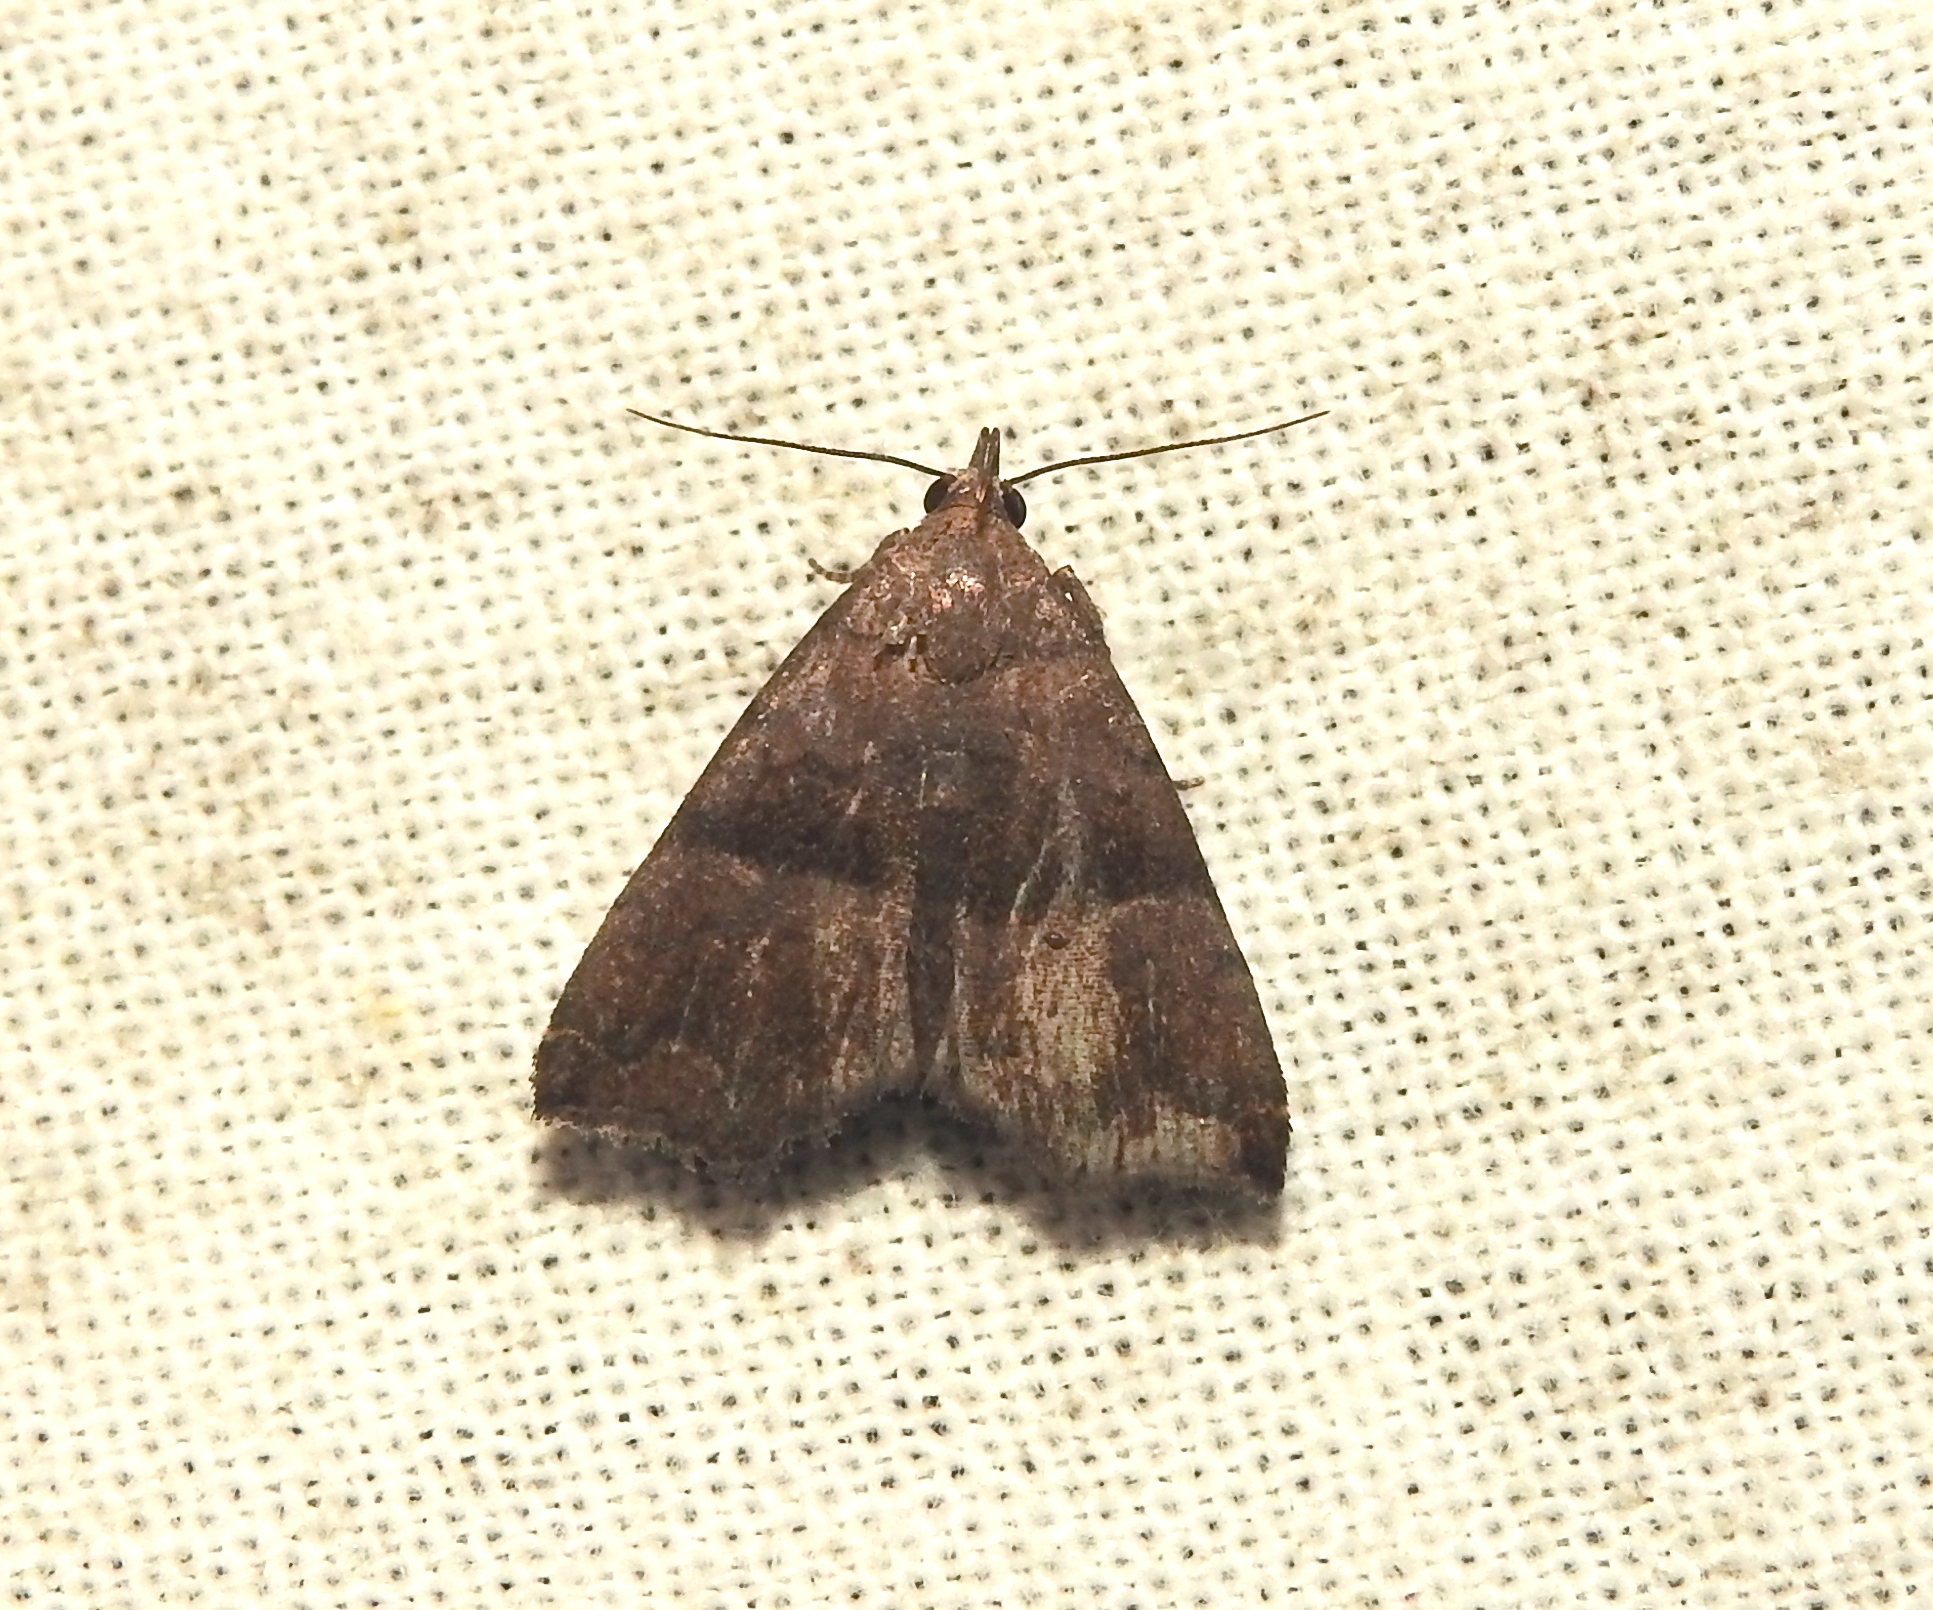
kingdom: Animalia
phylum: Arthropoda
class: Insecta
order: Lepidoptera
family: Erebidae
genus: Polypogon
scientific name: Polypogon biasalis
